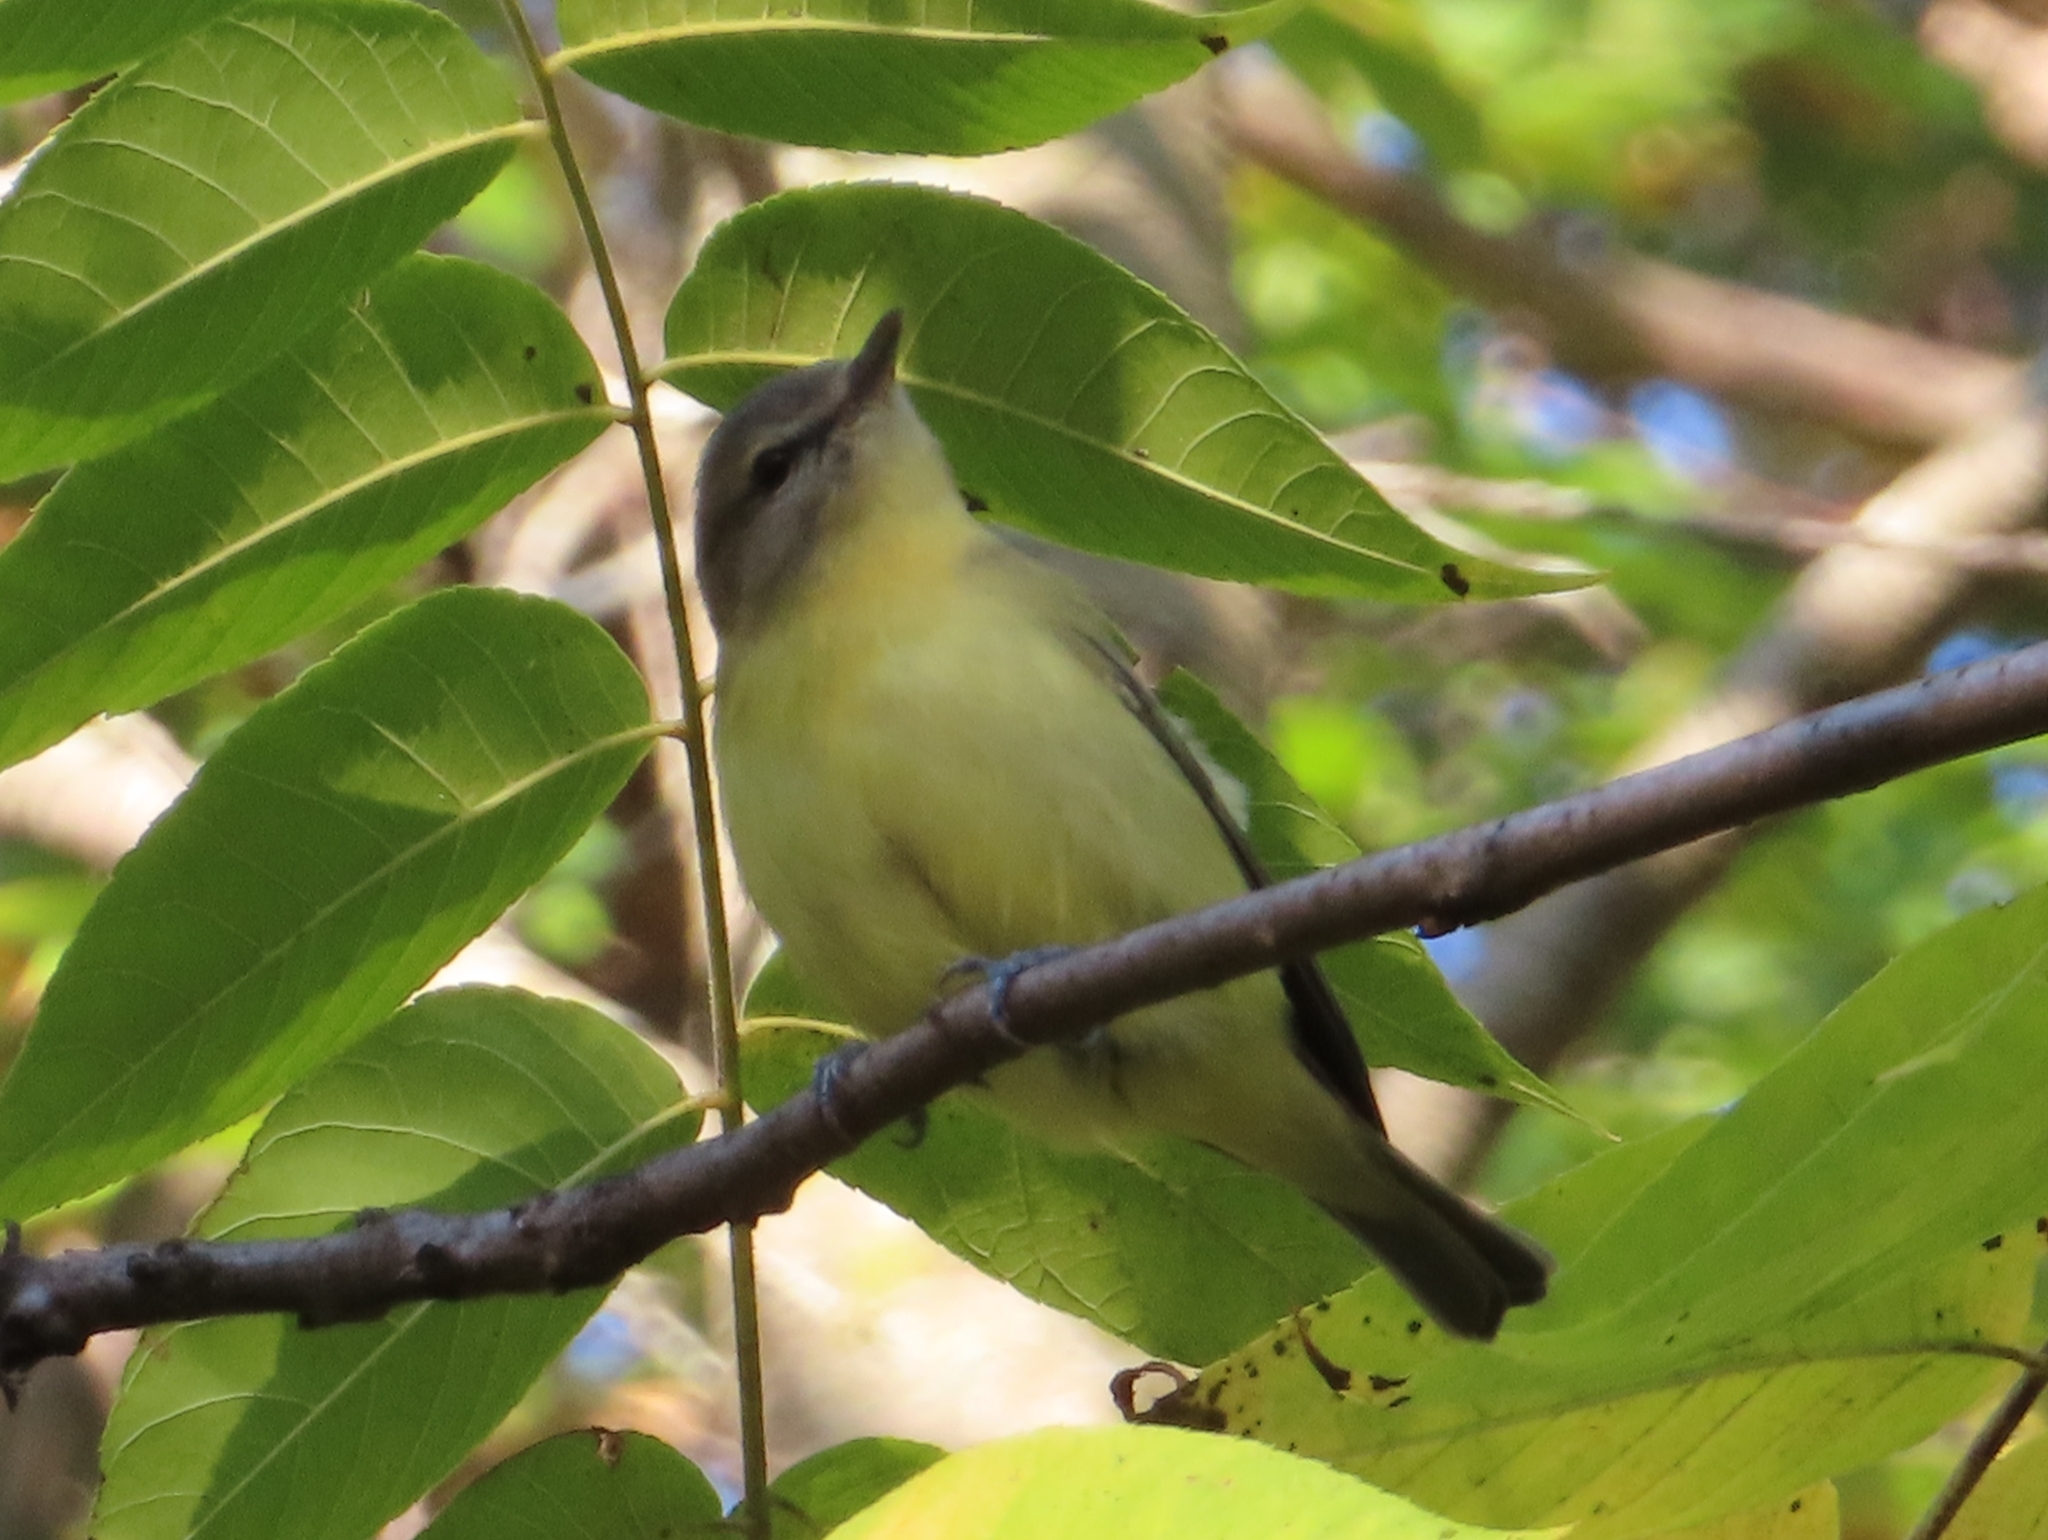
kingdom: Animalia
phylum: Chordata
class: Aves
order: Passeriformes
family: Vireonidae
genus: Vireo
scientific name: Vireo philadelphicus
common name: Philadelphia vireo
